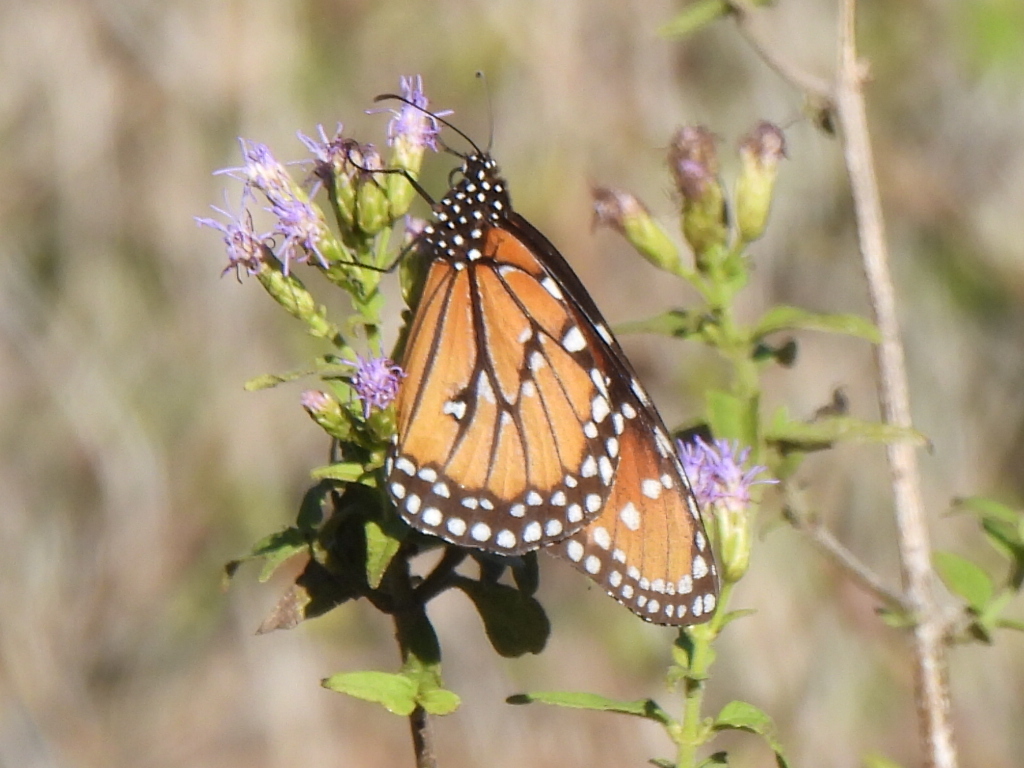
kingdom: Animalia
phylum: Arthropoda
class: Insecta
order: Lepidoptera
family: Nymphalidae
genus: Danaus
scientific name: Danaus gilippus
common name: Queen
